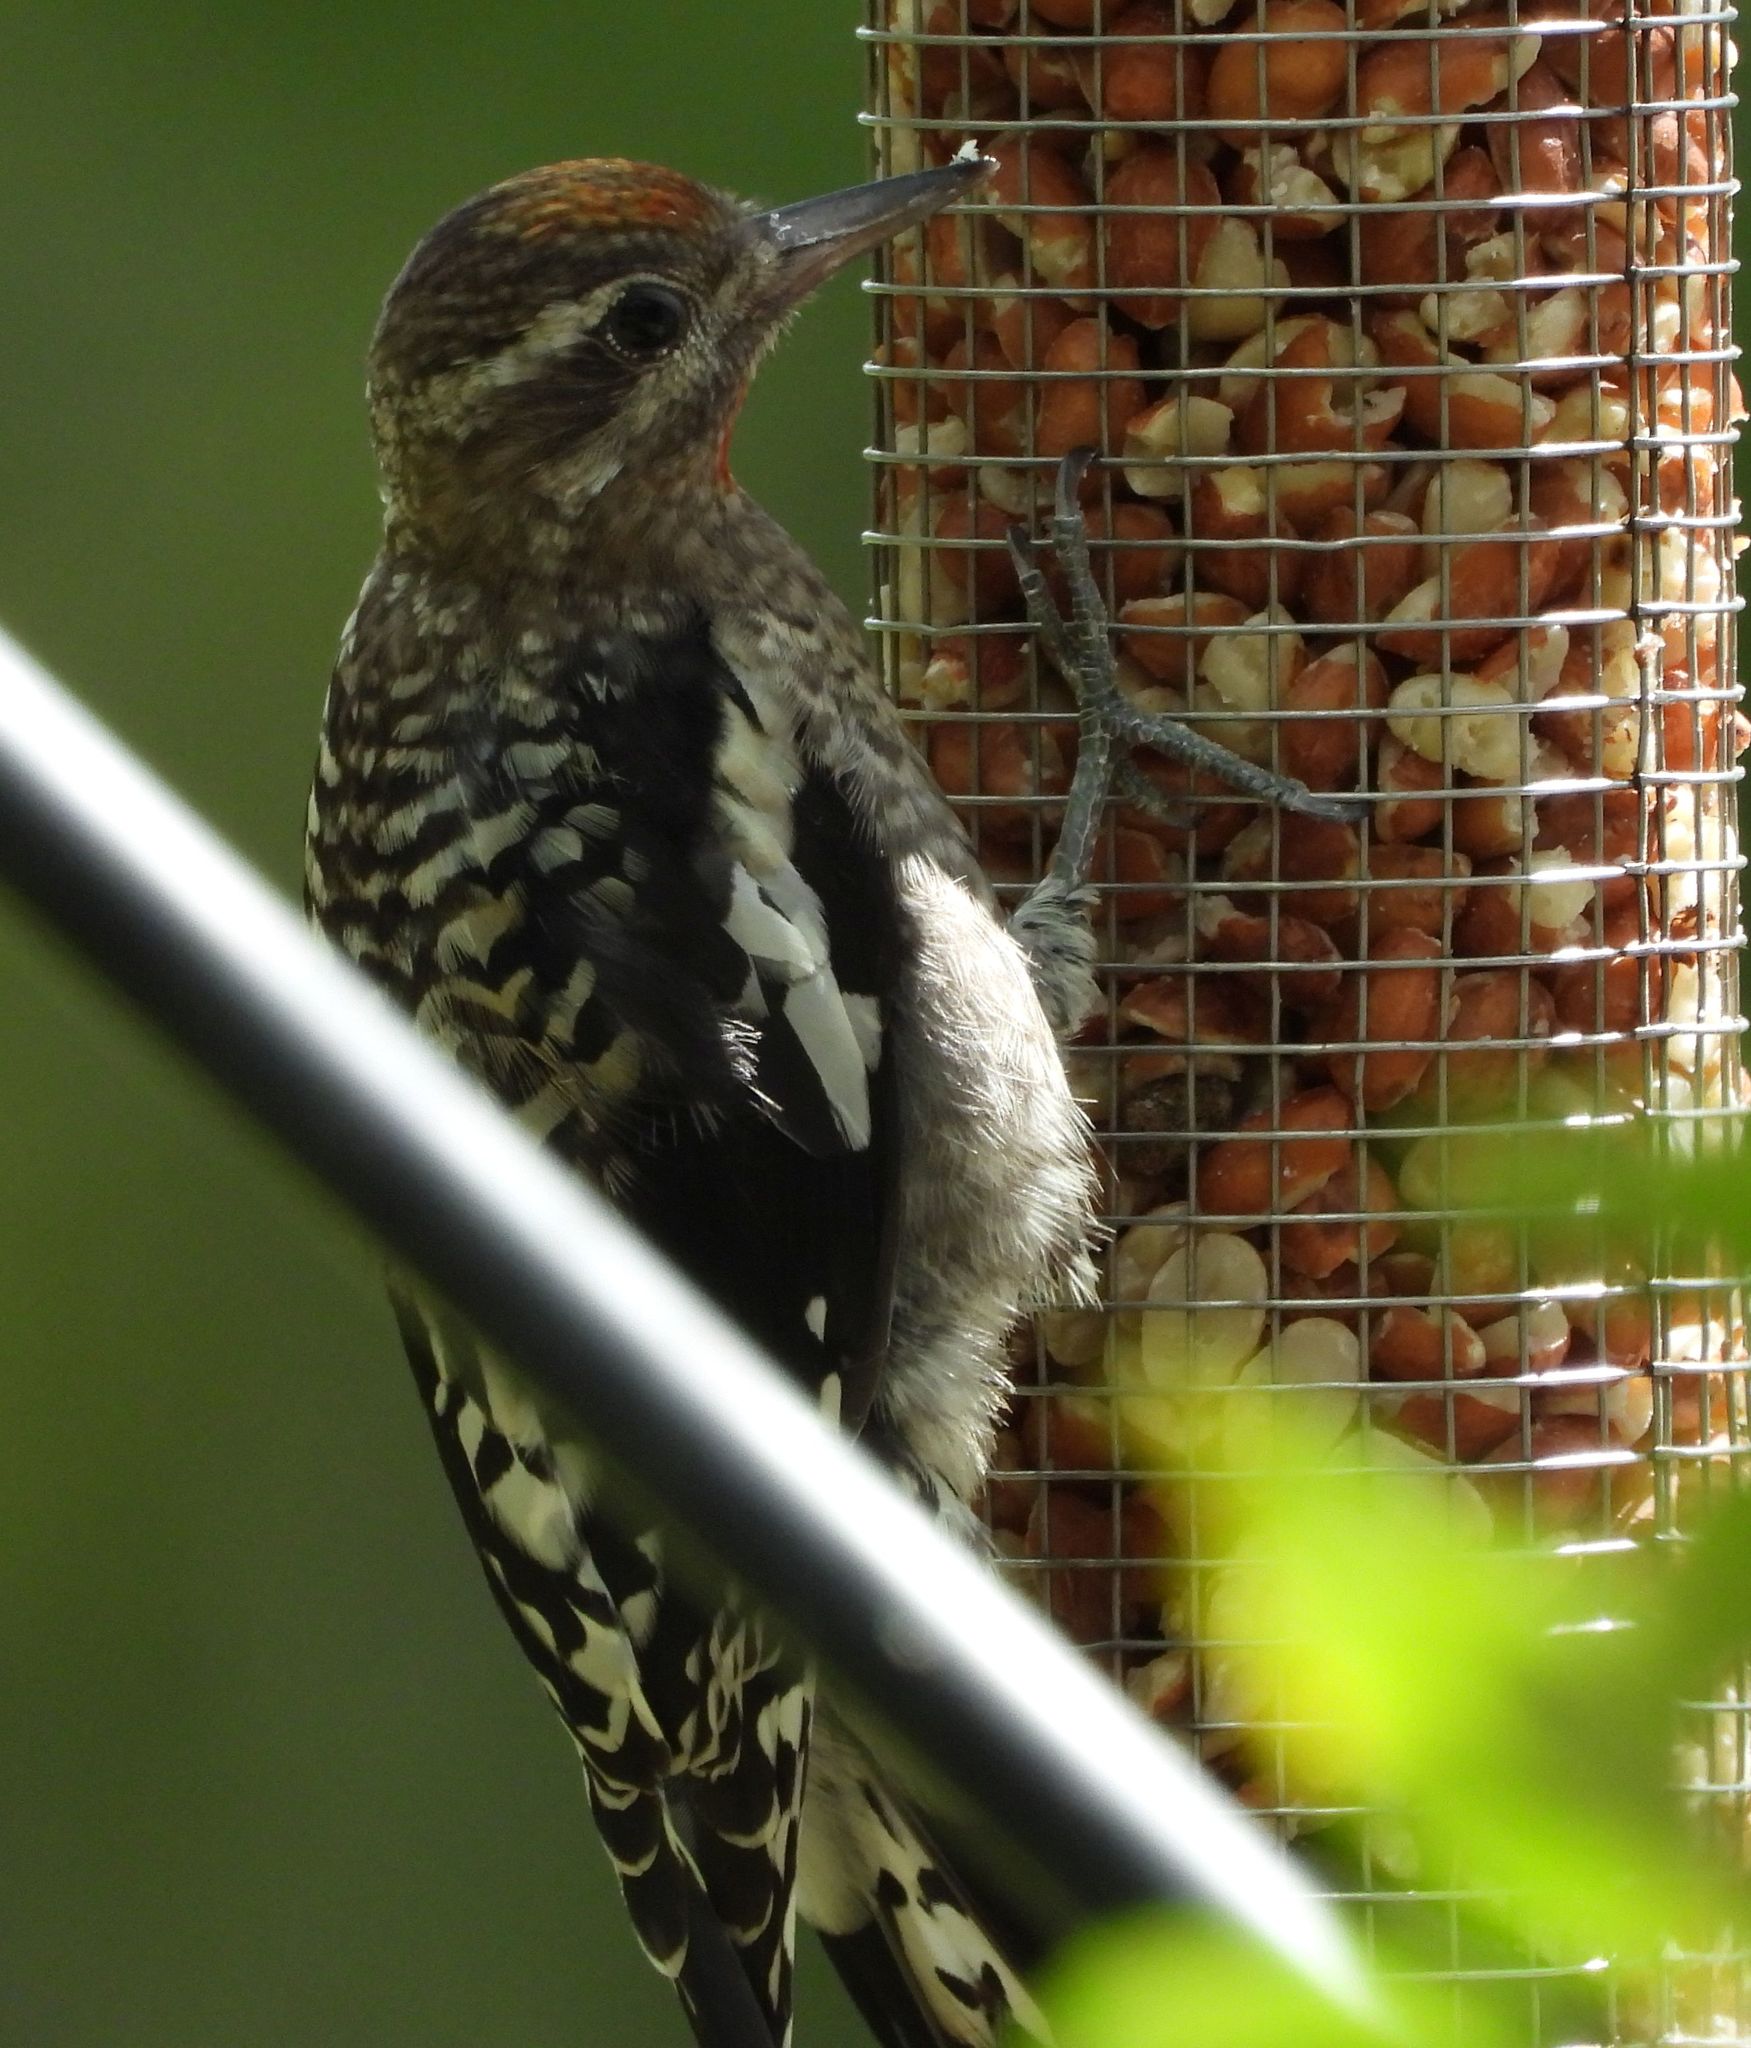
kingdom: Animalia
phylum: Chordata
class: Aves
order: Piciformes
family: Picidae
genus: Sphyrapicus
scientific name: Sphyrapicus varius
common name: Yellow-bellied sapsucker
